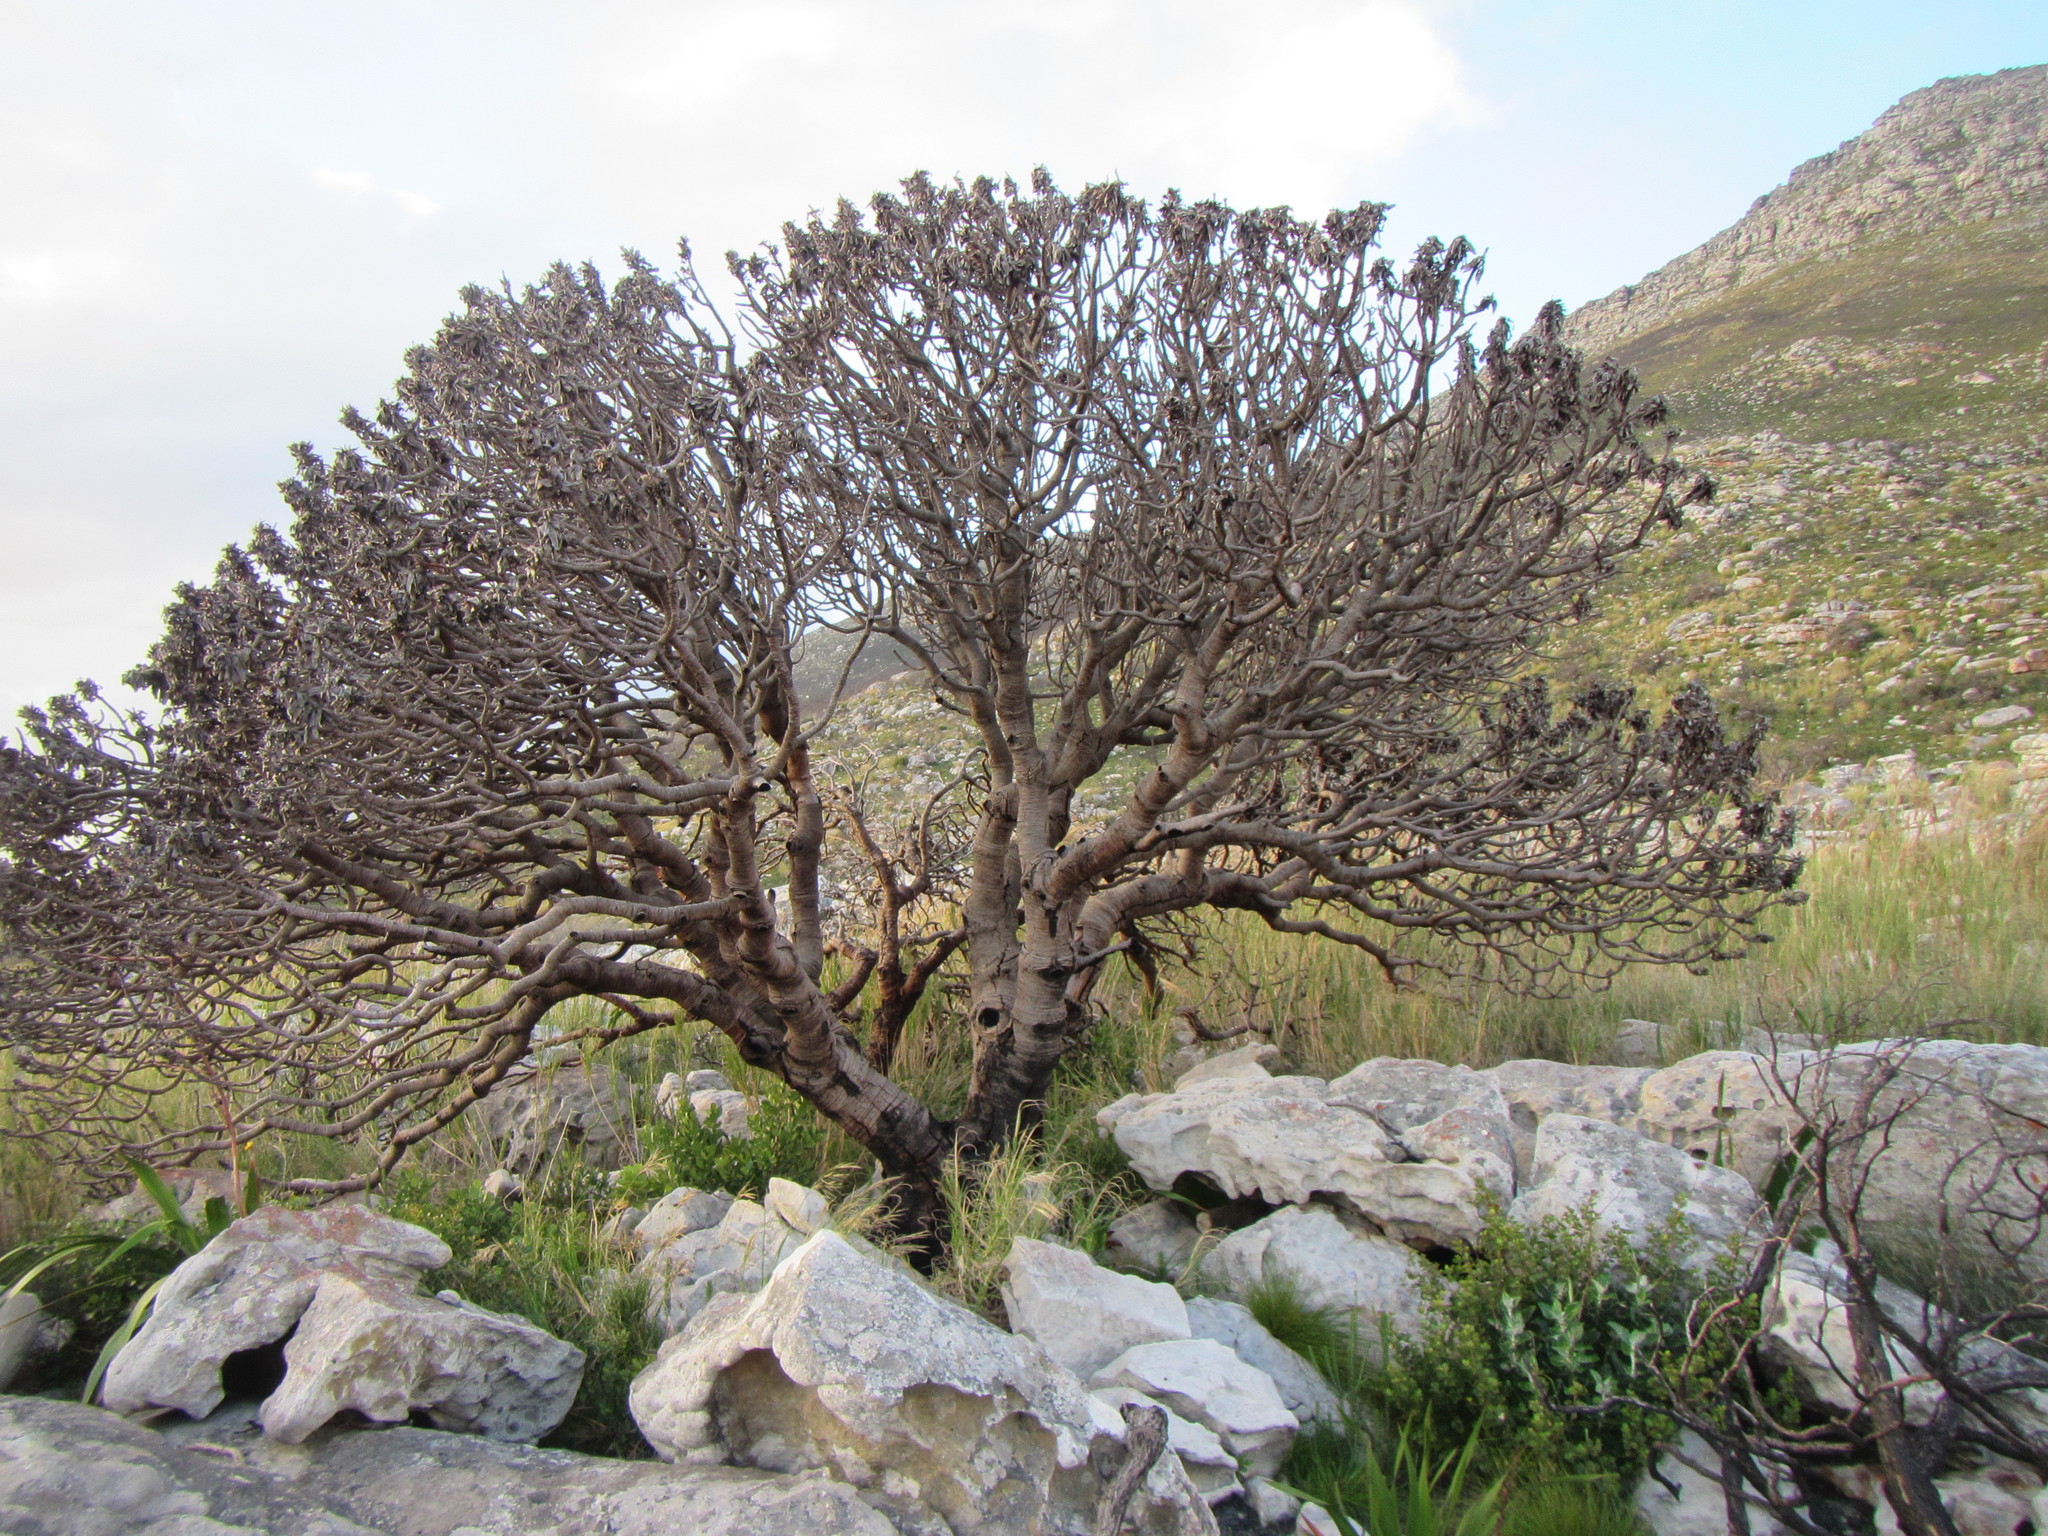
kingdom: Plantae
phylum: Tracheophyta
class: Magnoliopsida
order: Proteales
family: Proteaceae
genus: Mimetes
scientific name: Mimetes fimbriifolius
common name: Fringed bottlebrush
